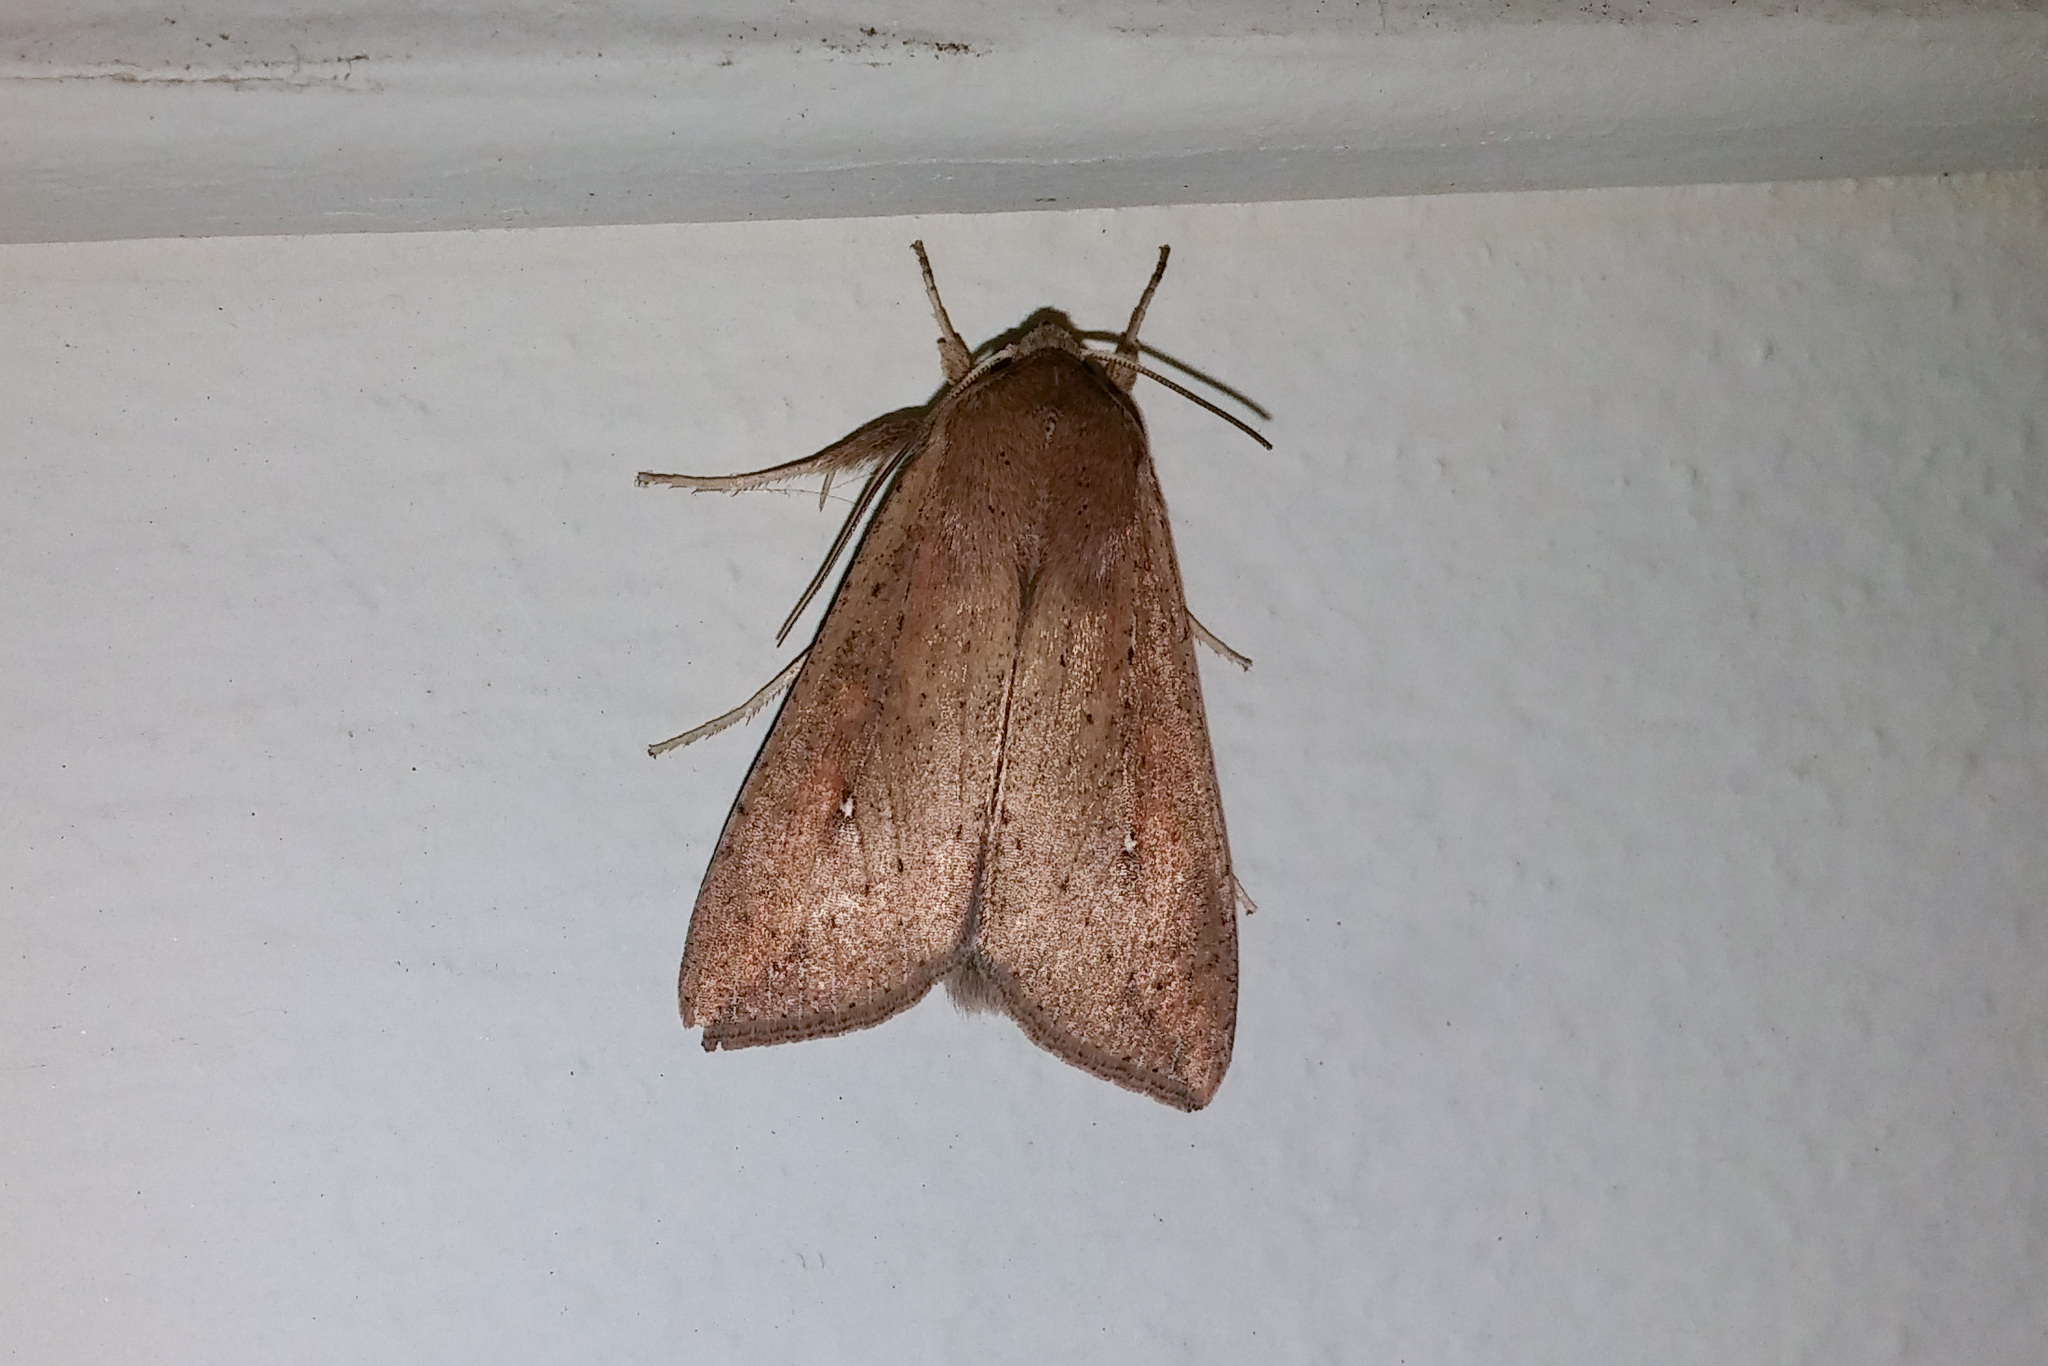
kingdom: Animalia
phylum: Arthropoda
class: Insecta
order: Lepidoptera
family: Noctuidae
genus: Mythimna
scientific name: Mythimna unipuncta
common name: White-speck
